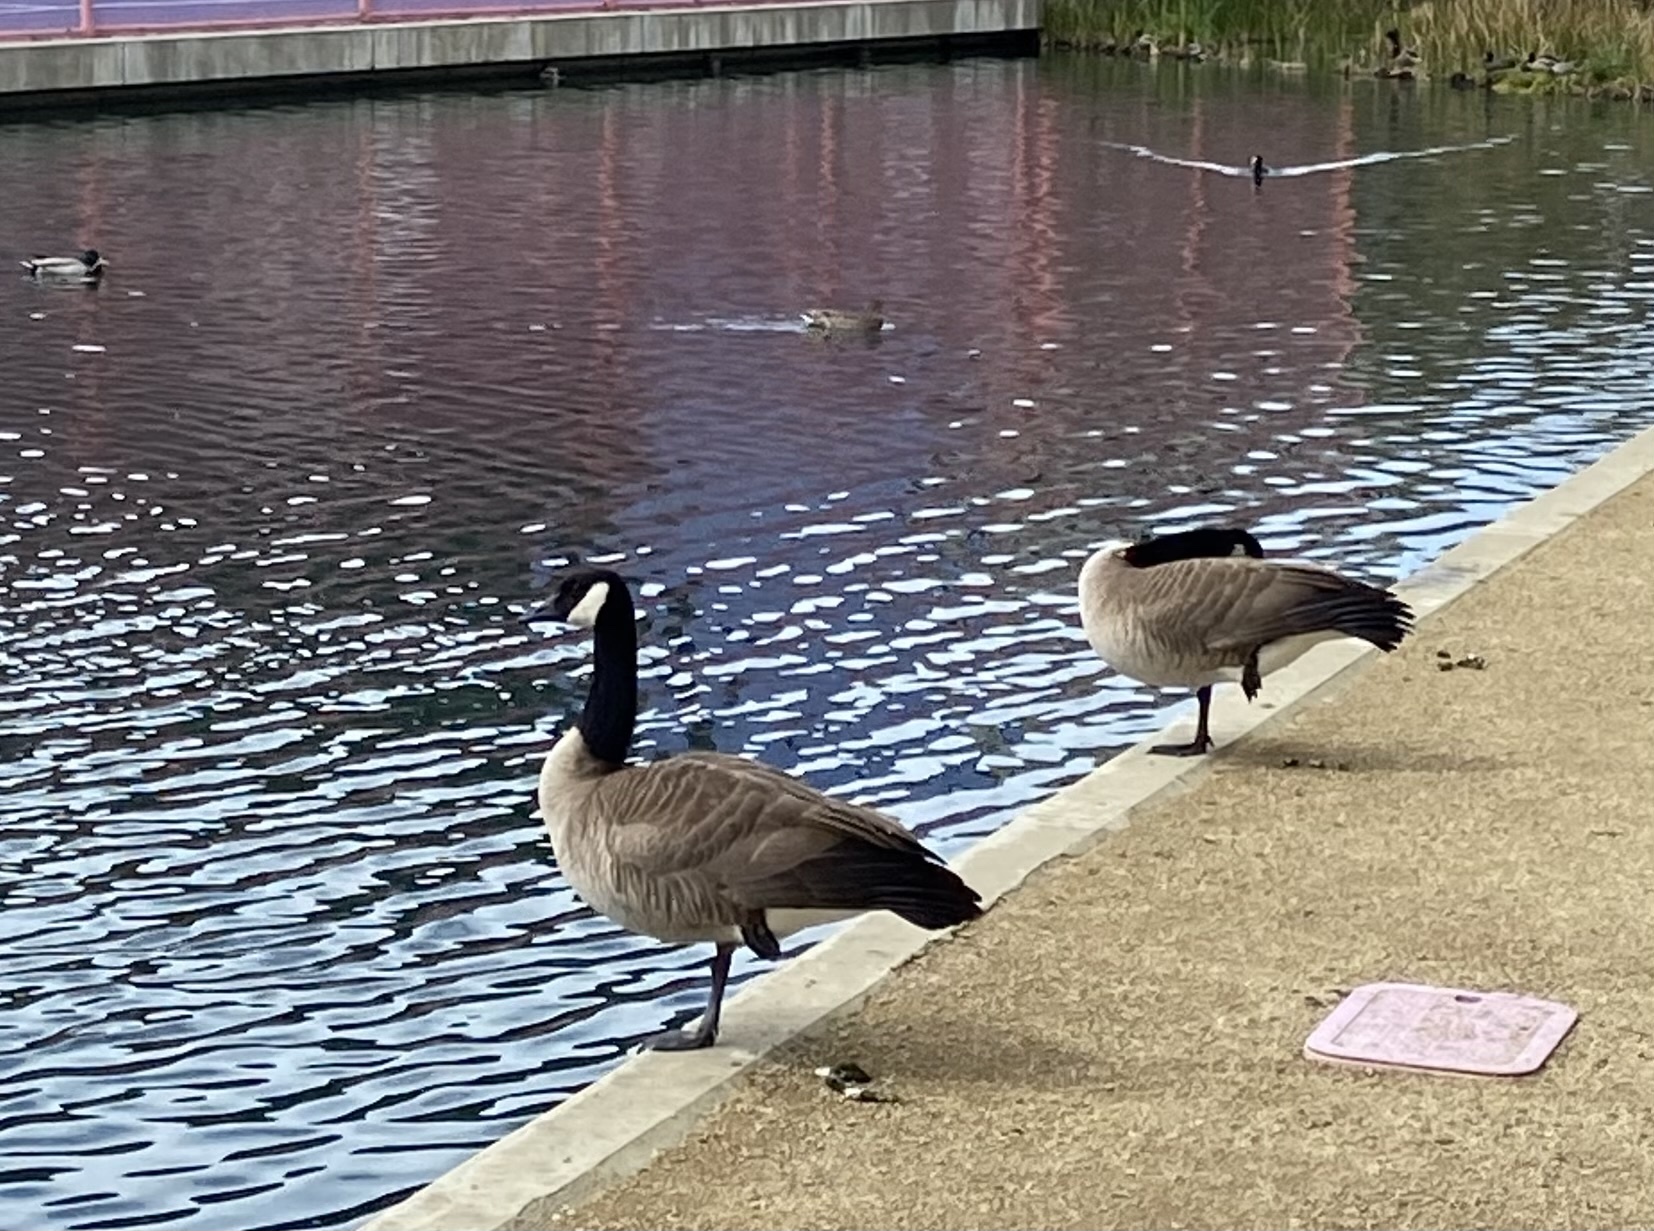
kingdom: Animalia
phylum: Chordata
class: Aves
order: Anseriformes
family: Anatidae
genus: Branta
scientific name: Branta canadensis
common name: Canada goose
